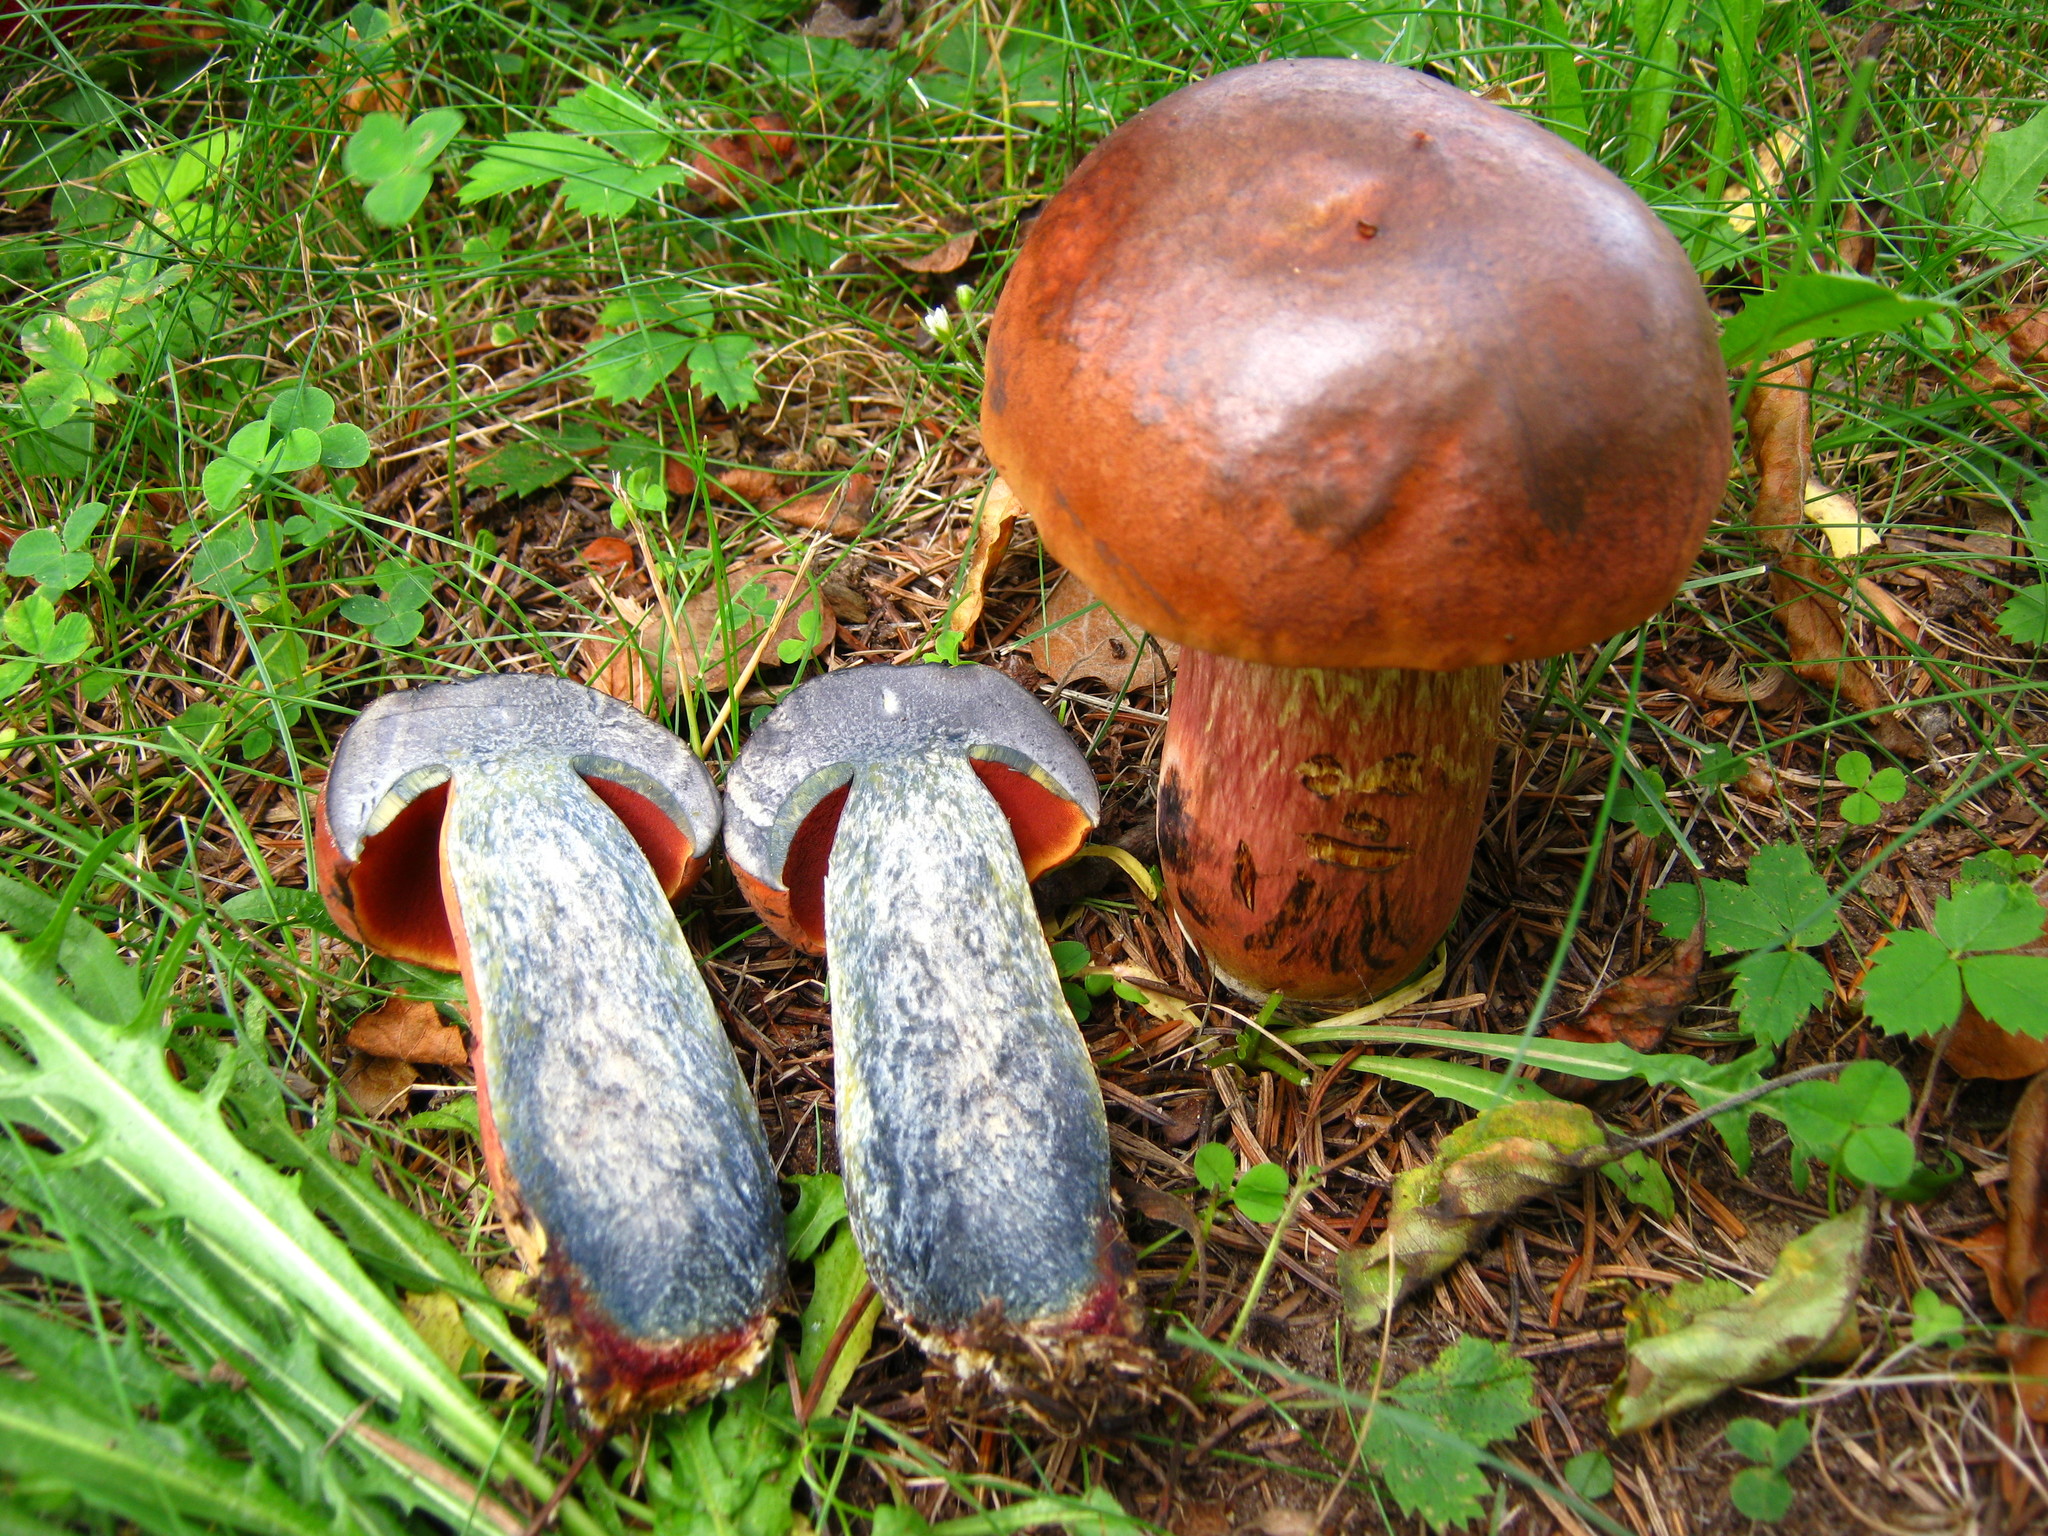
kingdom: Fungi
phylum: Basidiomycota
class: Agaricomycetes
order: Boletales
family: Boletaceae
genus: Boletus
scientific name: Boletus subvelutipes
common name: Red-mouth bolete
